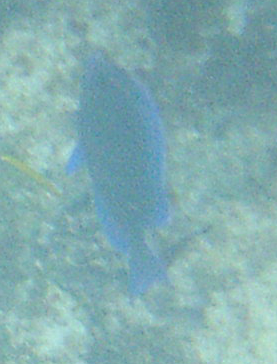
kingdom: Animalia
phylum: Chordata
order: Perciformes
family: Acanthuridae
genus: Acanthurus
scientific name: Acanthurus coeruleus
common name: Blue tang
